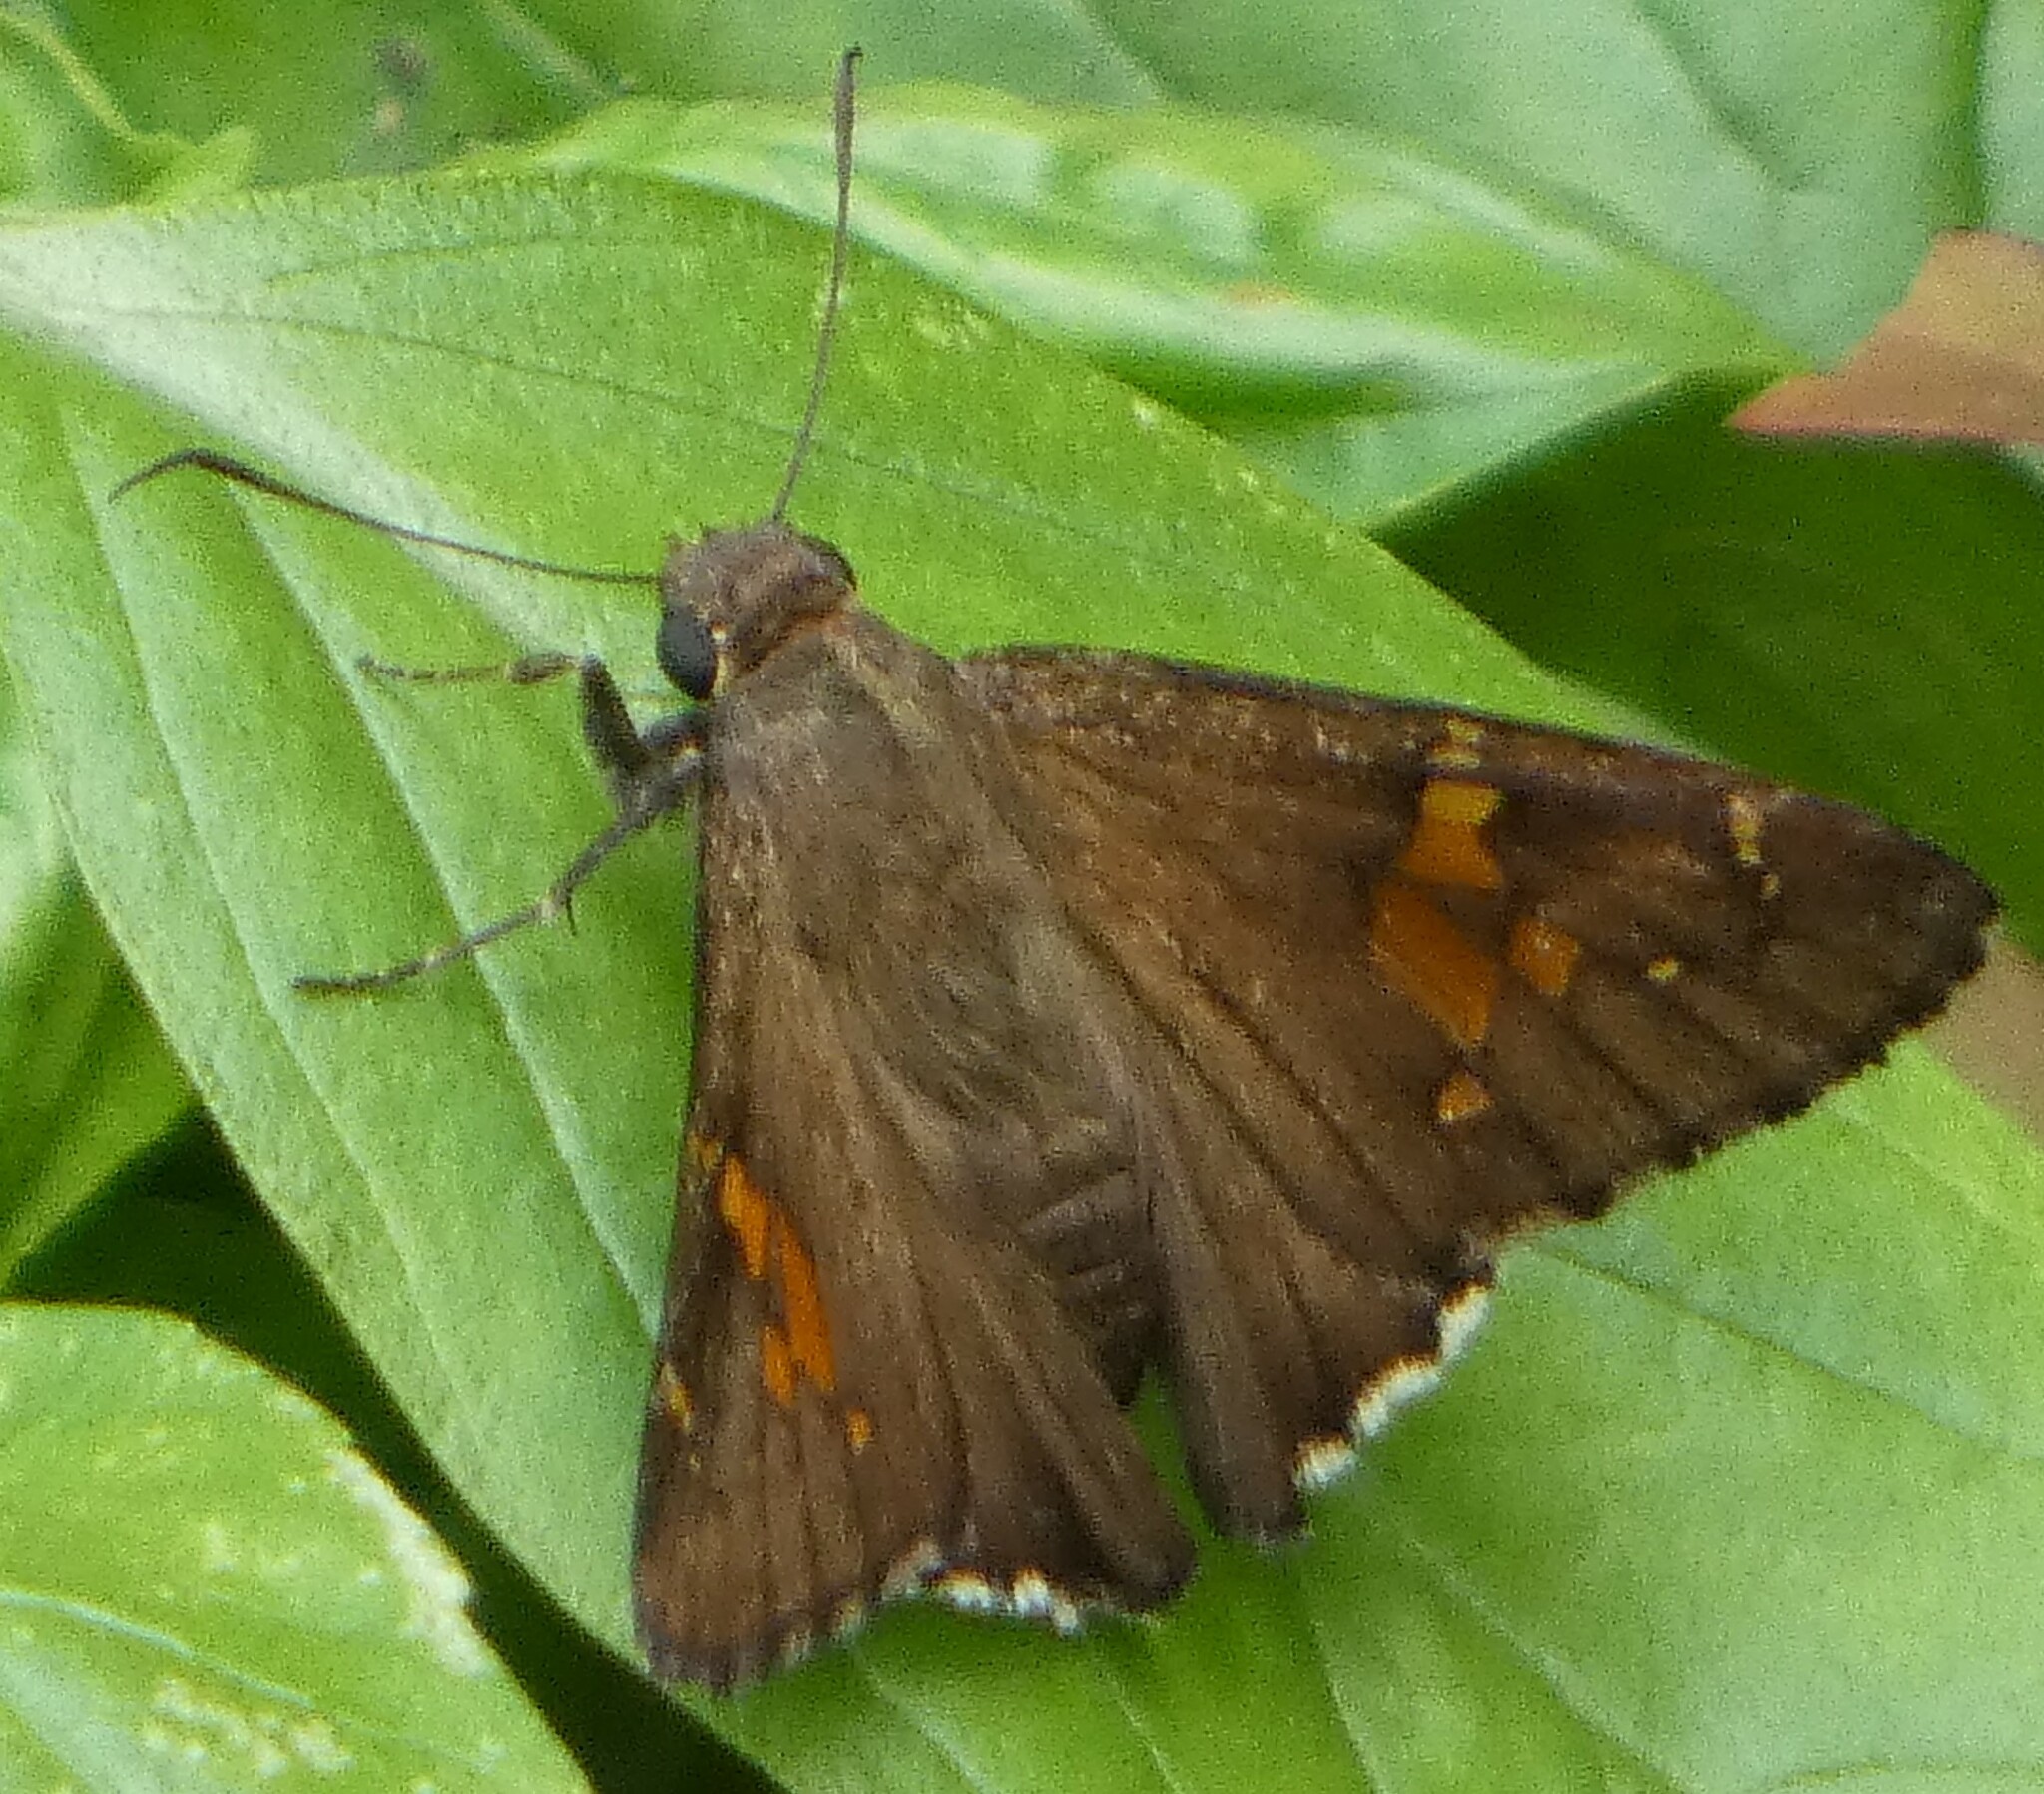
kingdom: Animalia
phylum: Arthropoda
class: Insecta
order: Lepidoptera
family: Hesperiidae
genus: Thorybes
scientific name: Thorybes lyciades
